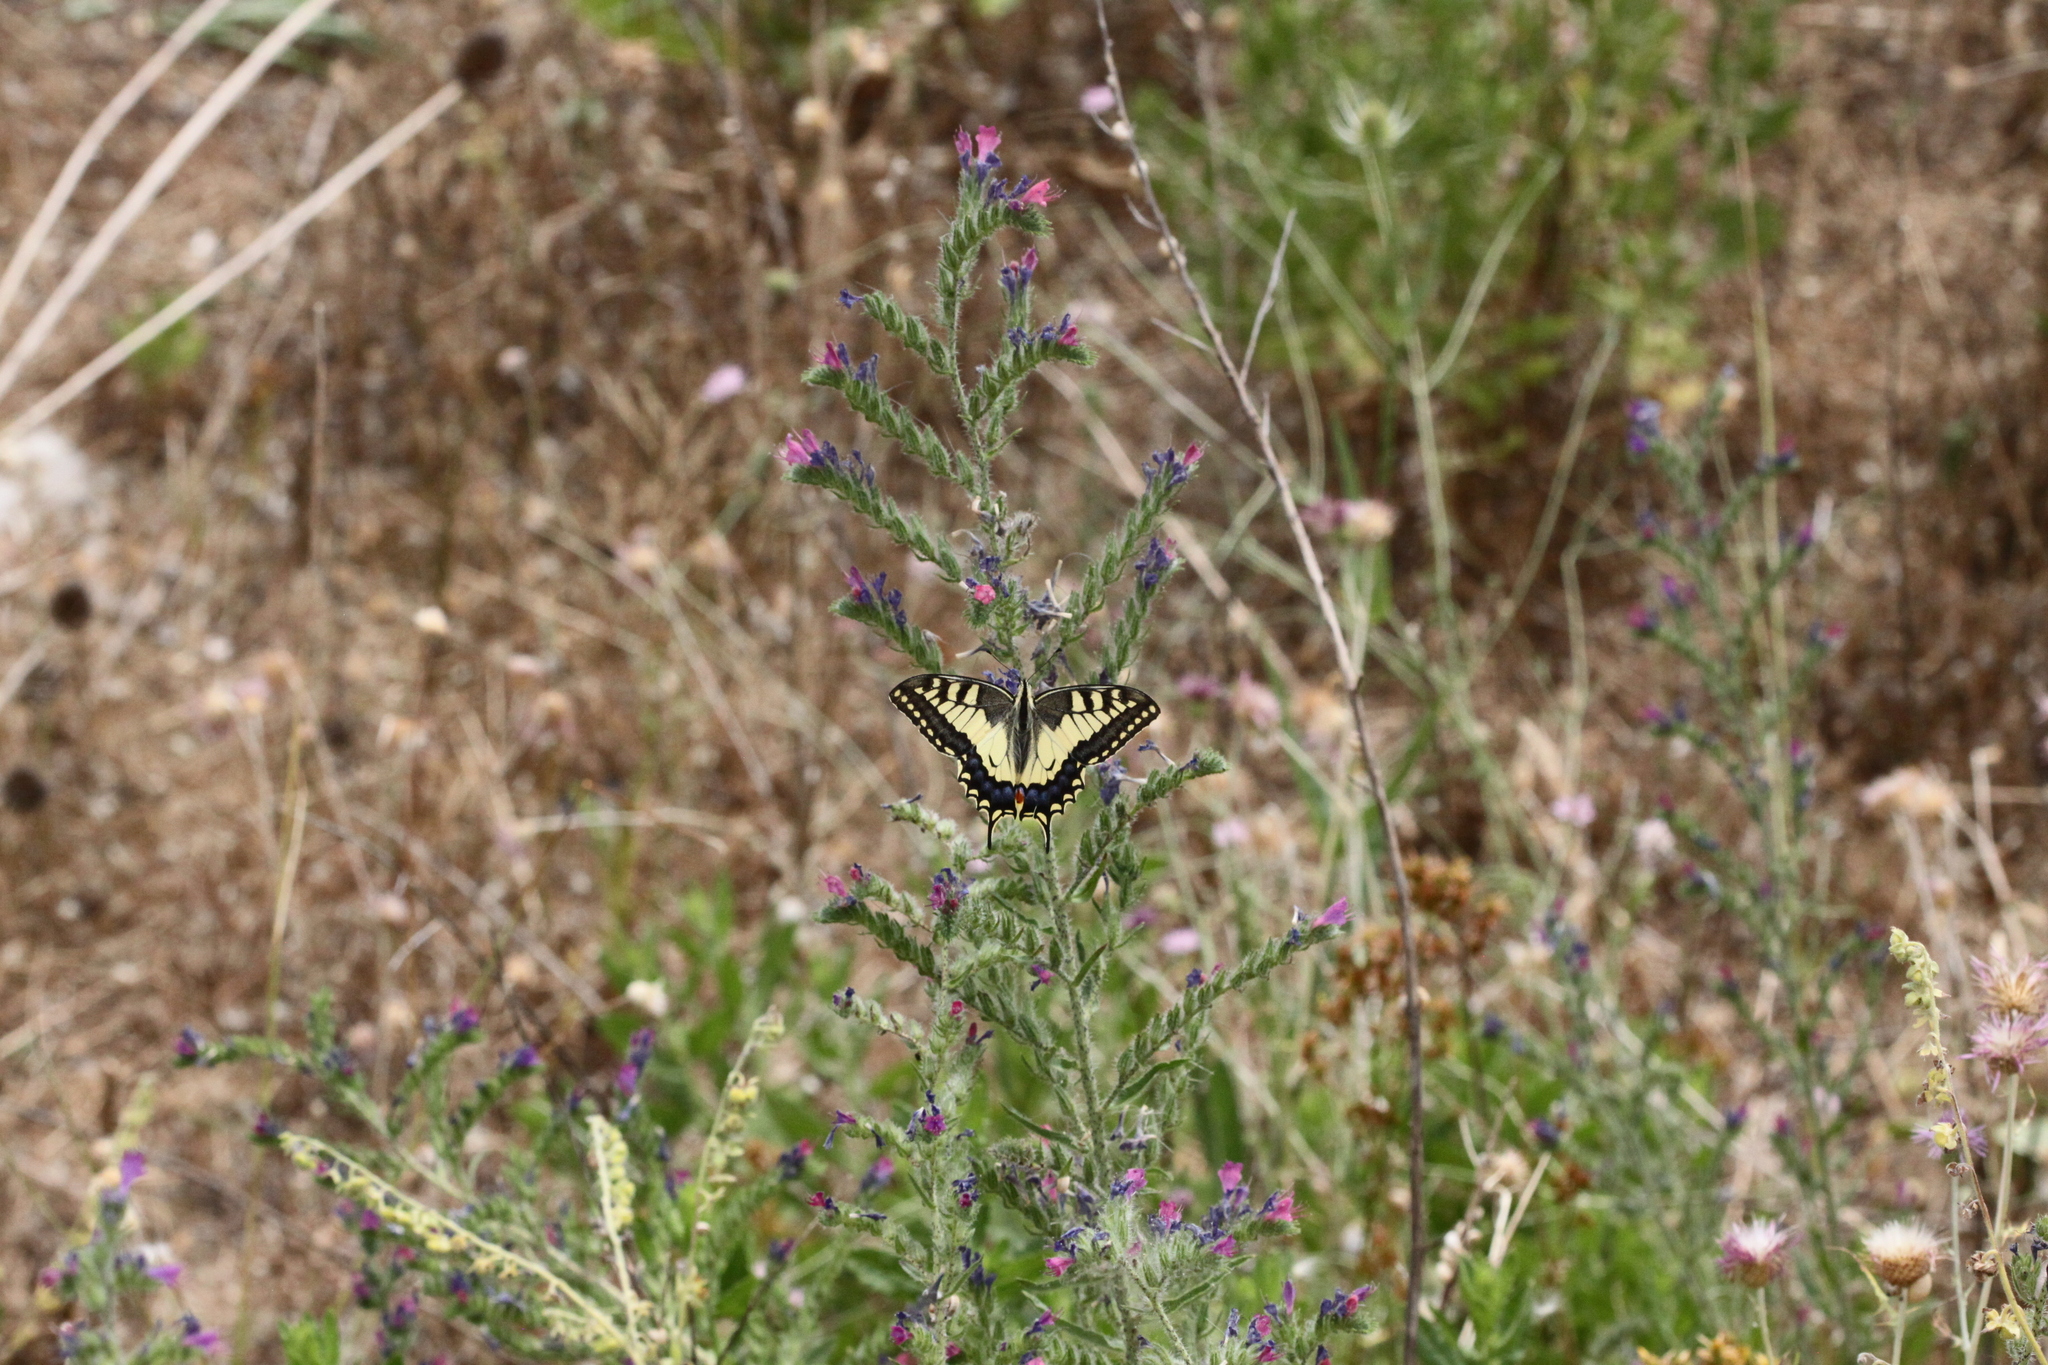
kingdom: Animalia
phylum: Arthropoda
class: Insecta
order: Lepidoptera
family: Papilionidae
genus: Papilio
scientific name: Papilio machaon
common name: Swallowtail
